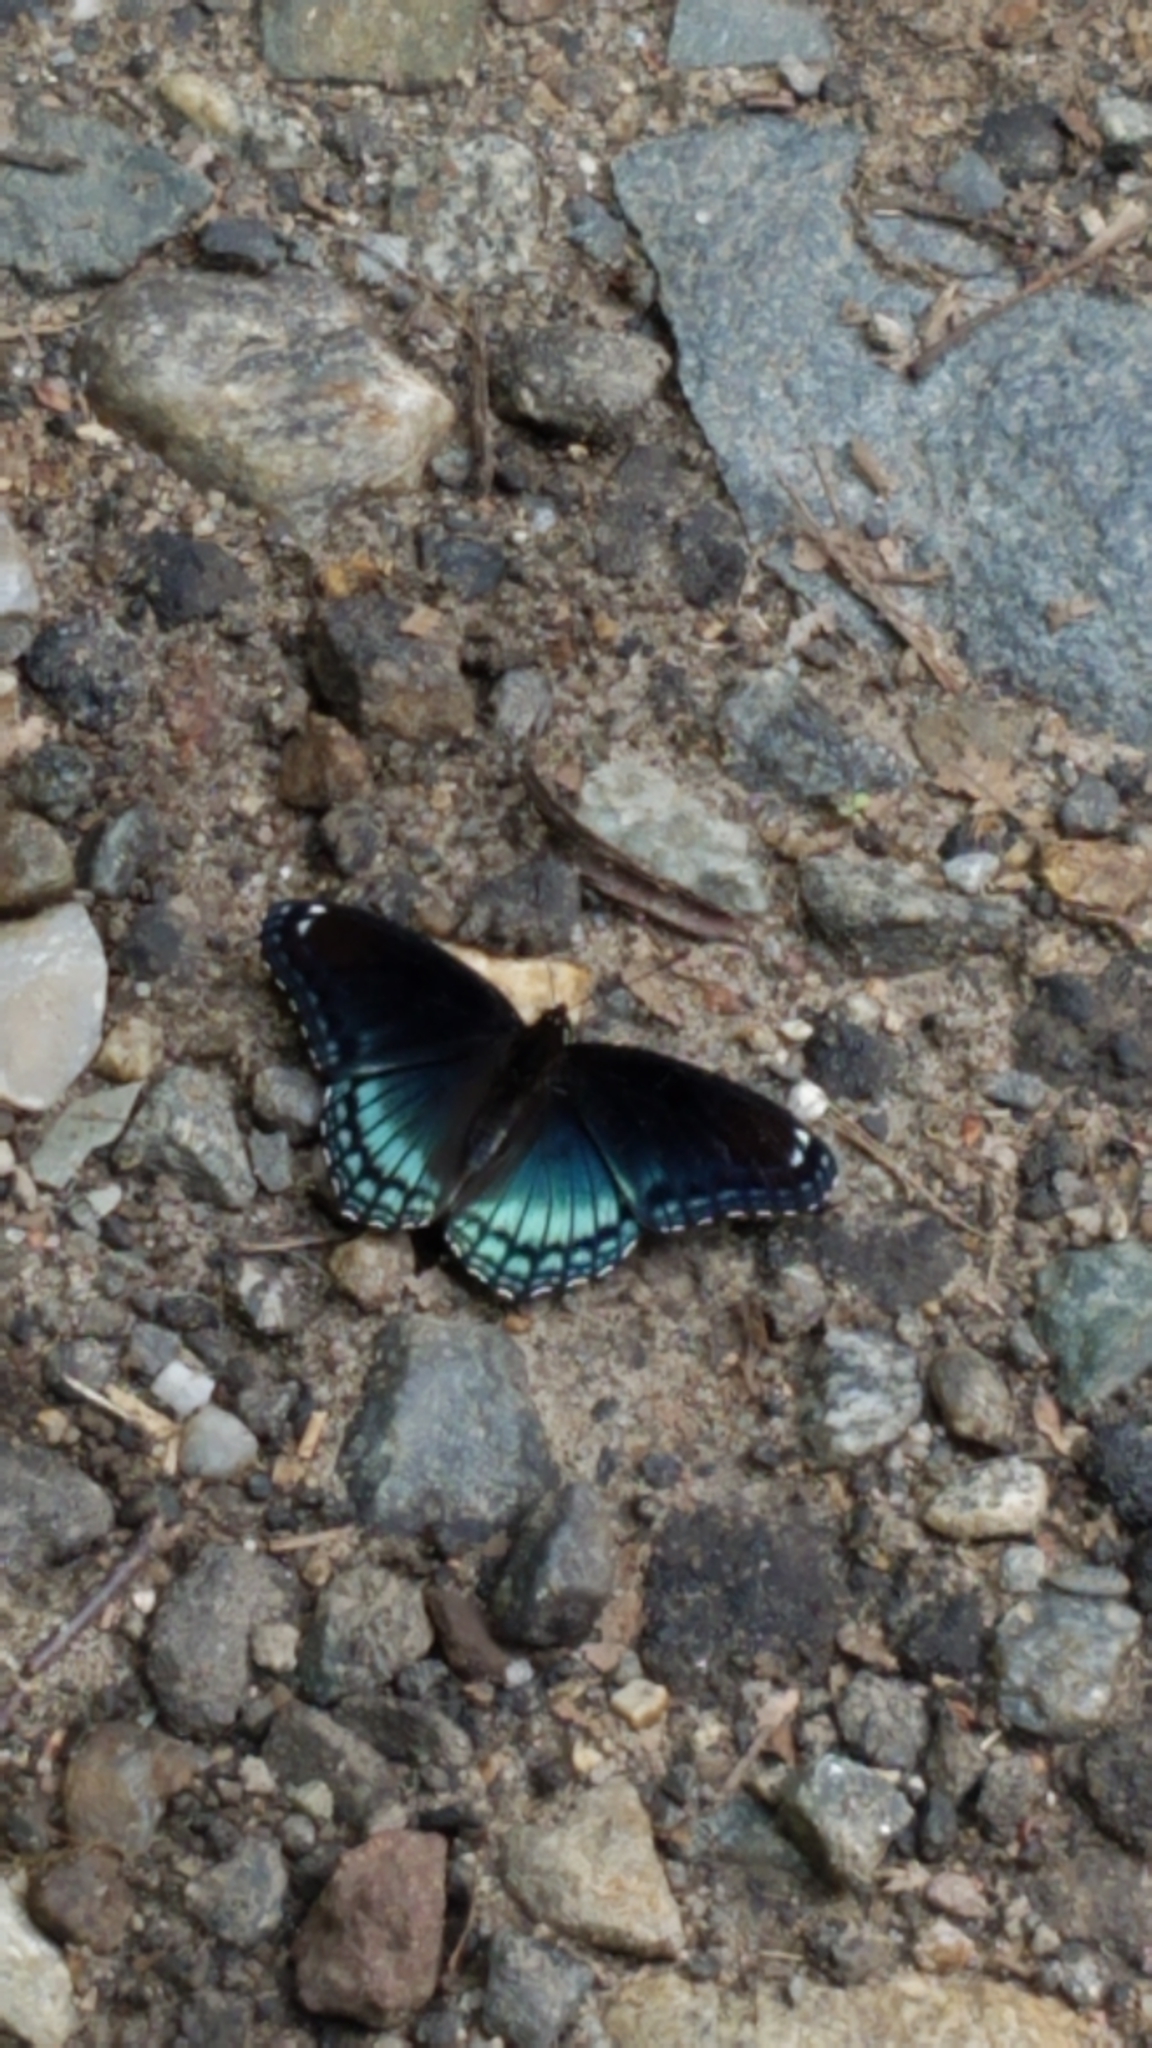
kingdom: Animalia
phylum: Arthropoda
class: Insecta
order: Lepidoptera
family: Nymphalidae
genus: Limenitis
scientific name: Limenitis arthemis
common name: Red-spotted admiral
